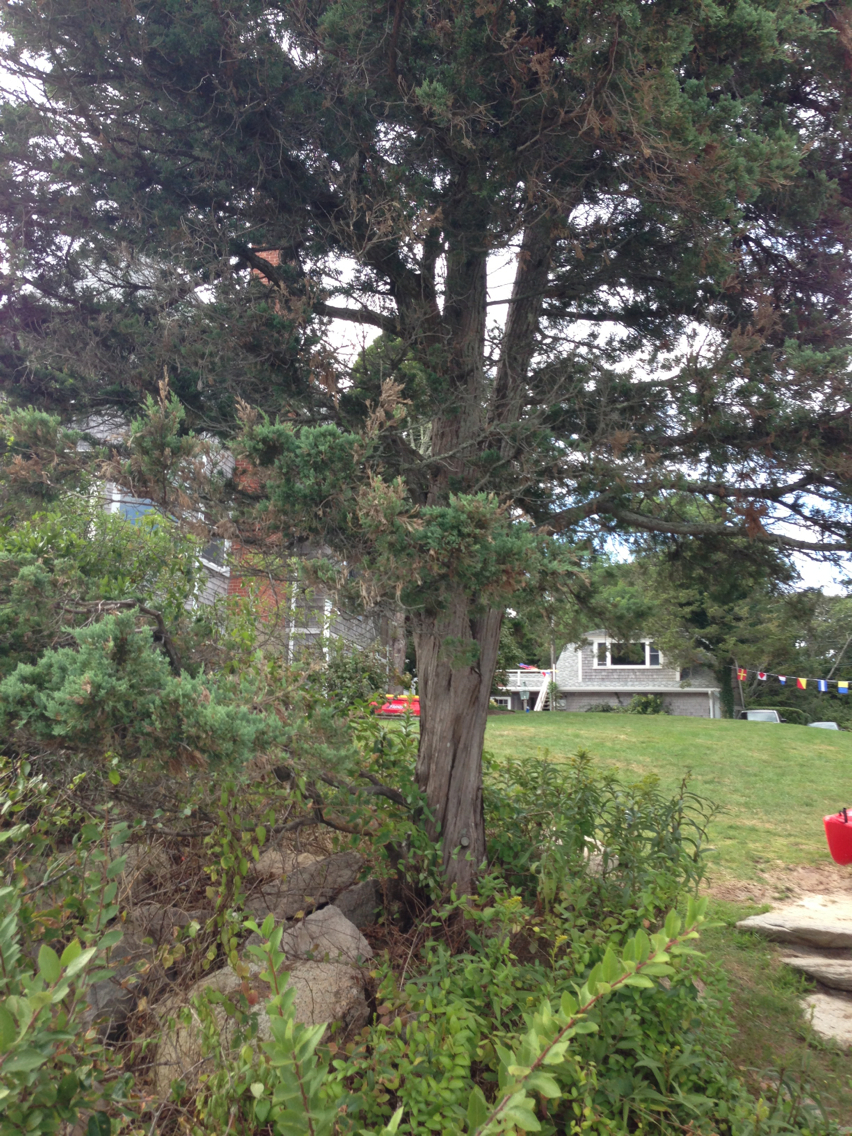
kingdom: Plantae
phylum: Tracheophyta
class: Pinopsida
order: Pinales
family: Cupressaceae
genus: Juniperus
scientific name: Juniperus virginiana
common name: Red juniper
